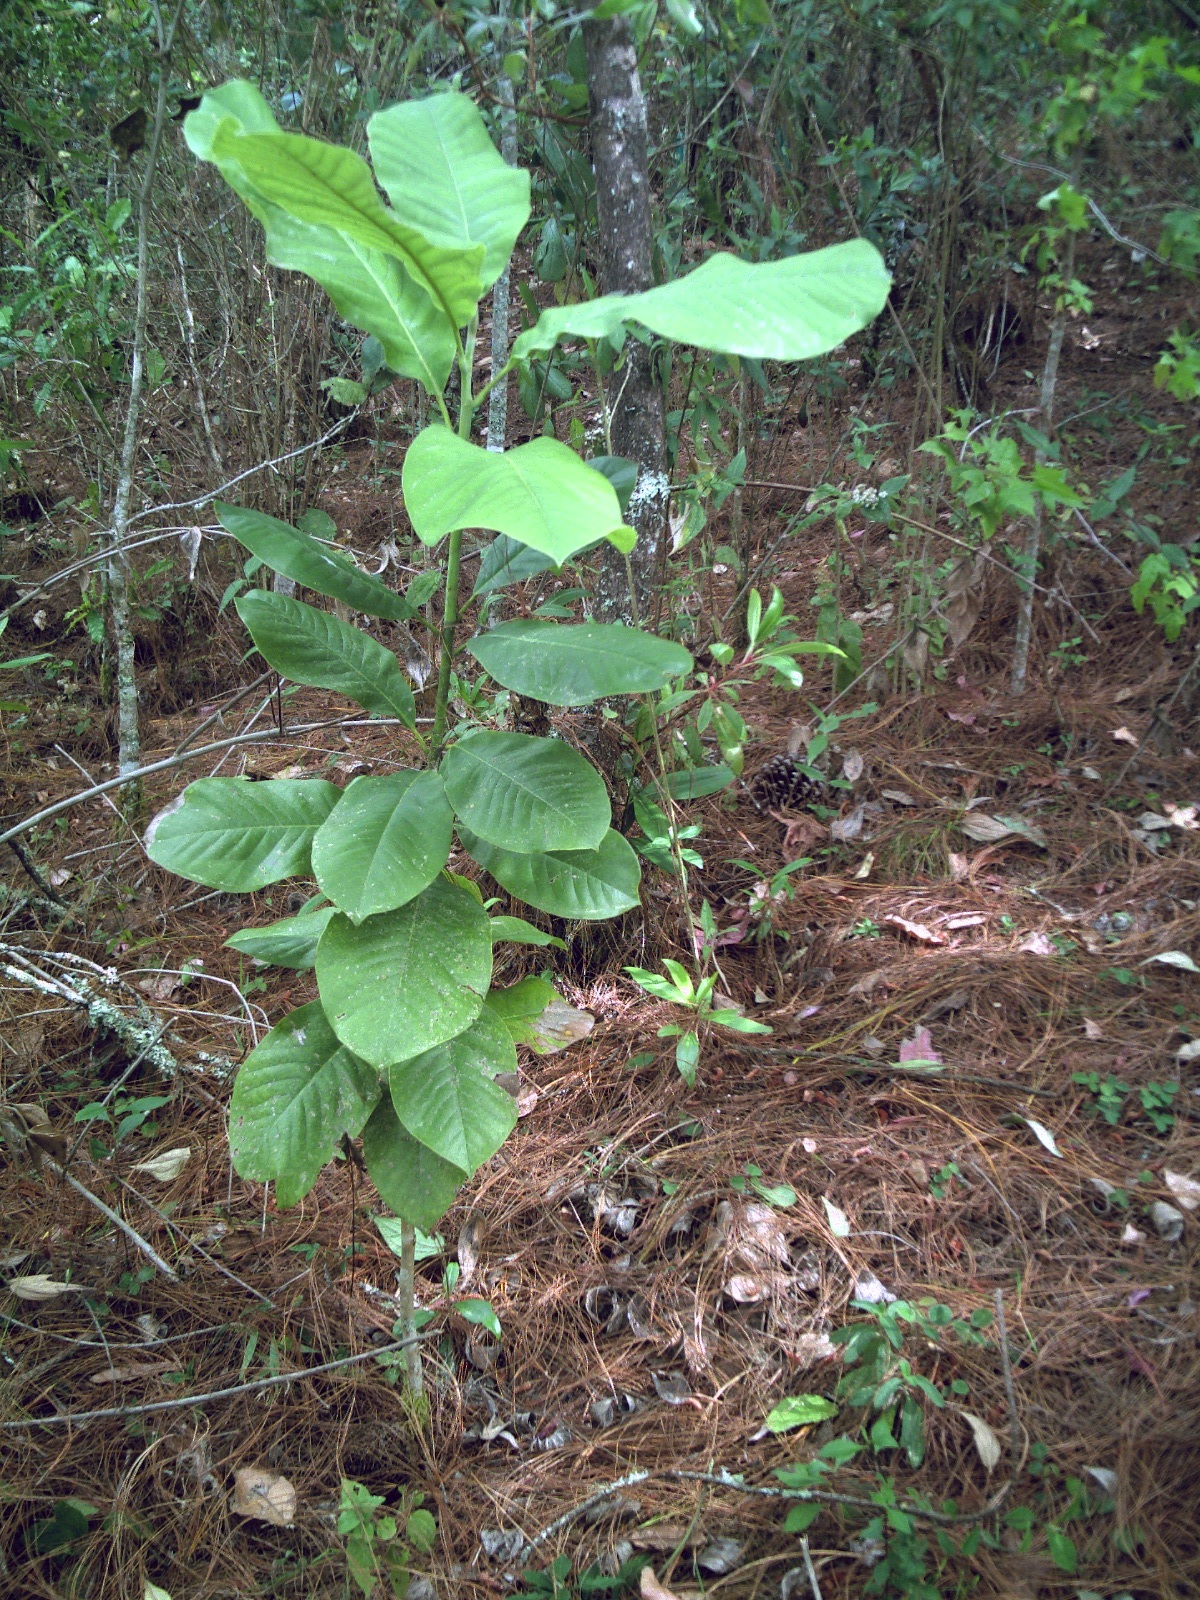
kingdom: Plantae
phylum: Tracheophyta
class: Magnoliopsida
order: Magnoliales
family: Magnoliaceae
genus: Magnolia
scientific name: Magnolia sharpii
